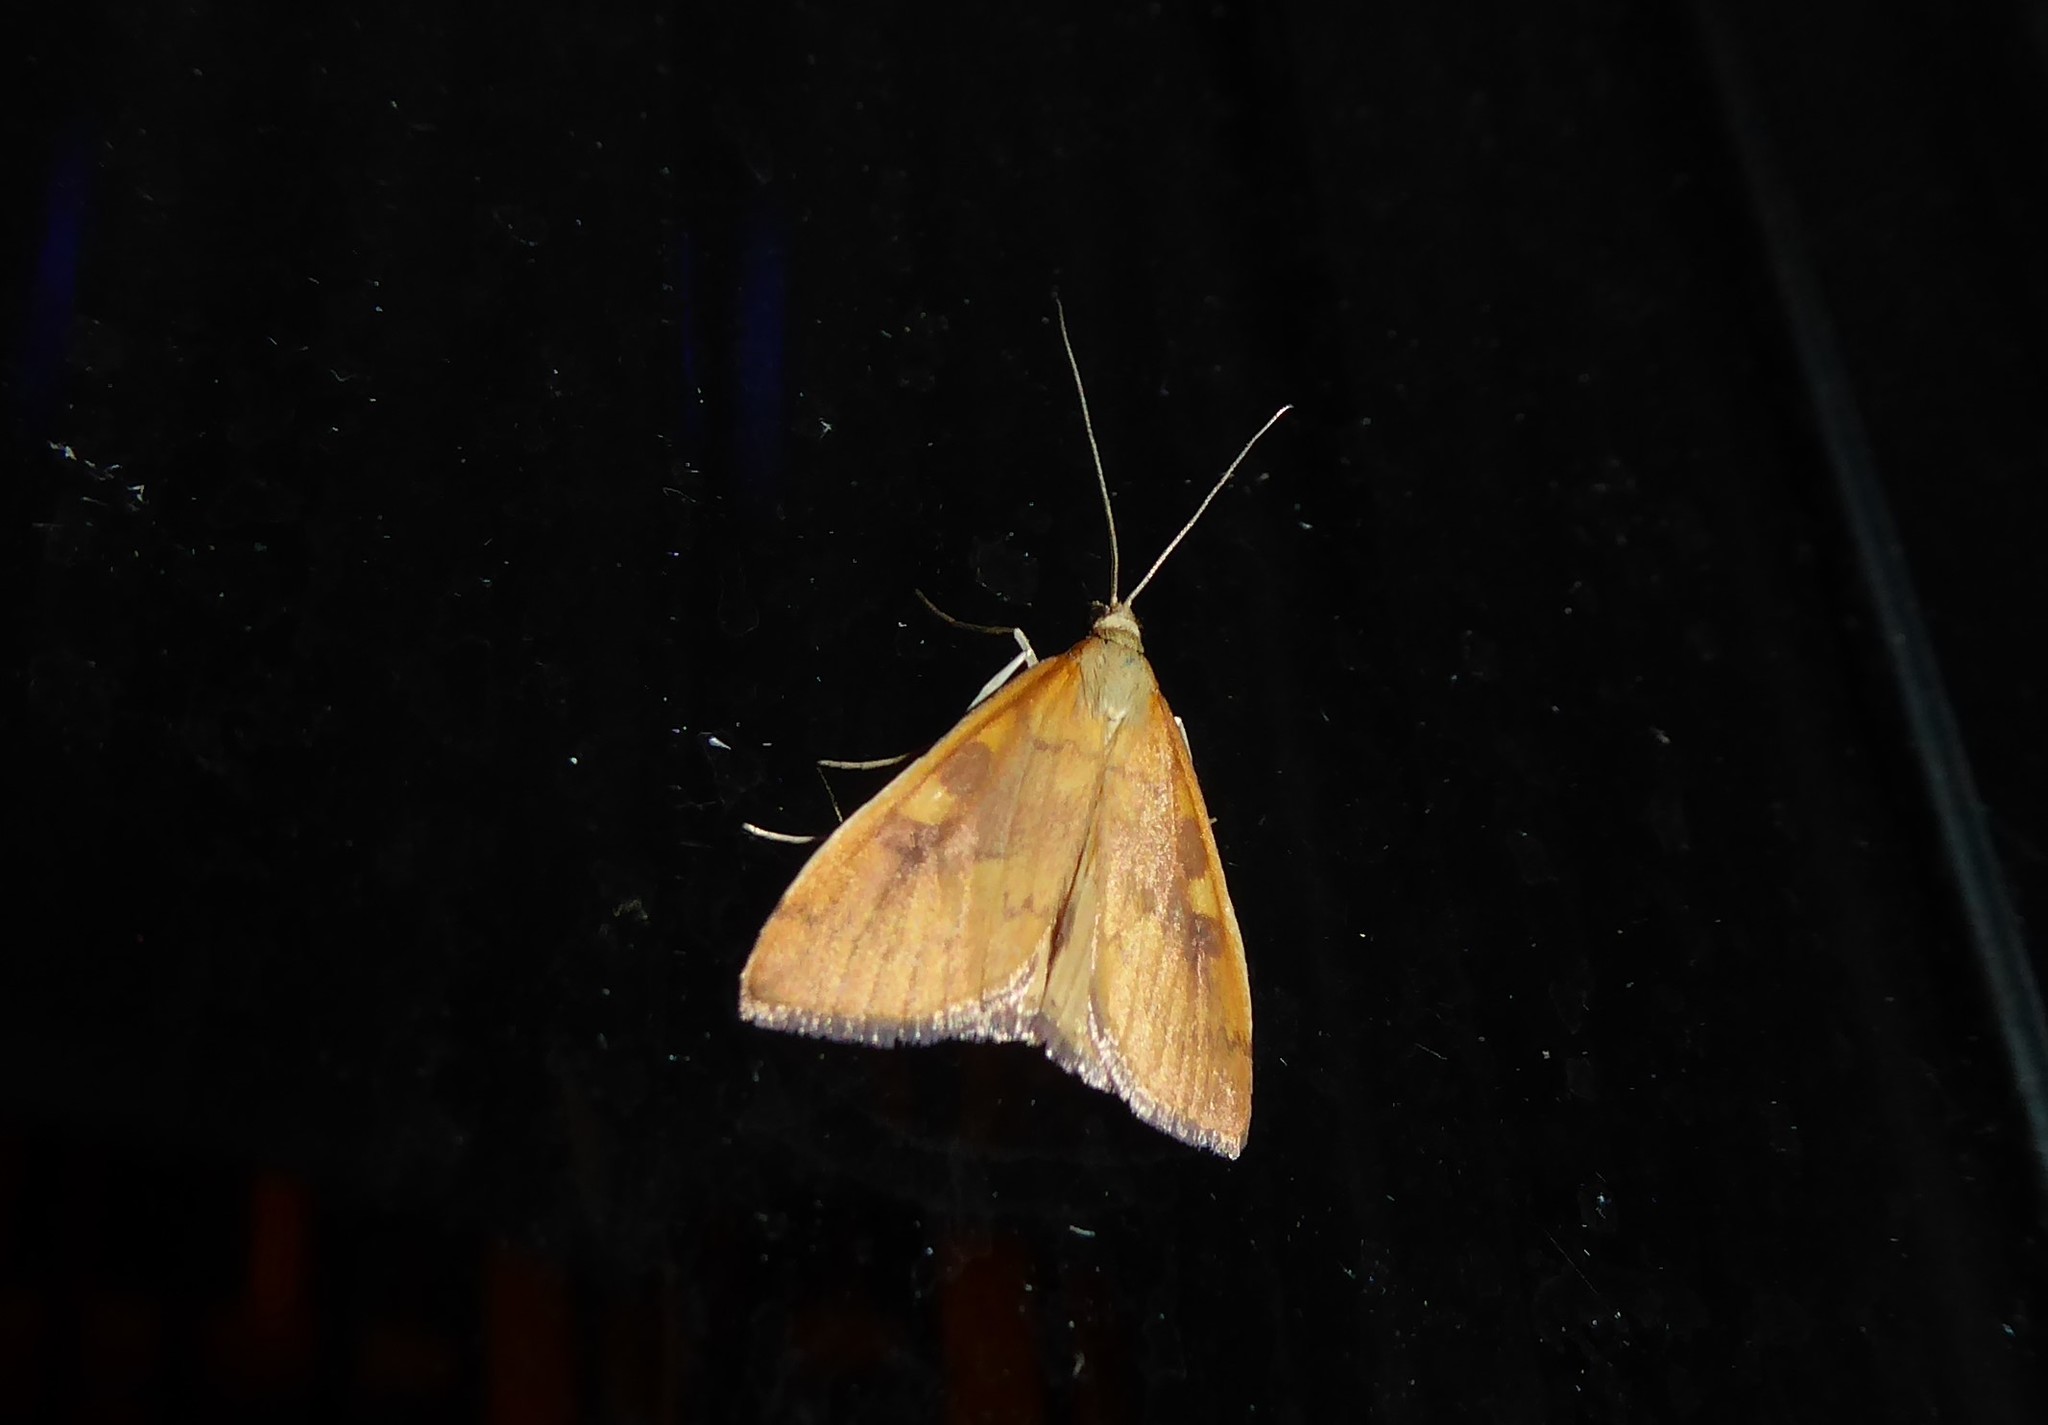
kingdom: Animalia
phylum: Arthropoda
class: Insecta
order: Lepidoptera
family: Crambidae
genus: Udea
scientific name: Udea Mnesictena flavidalis
